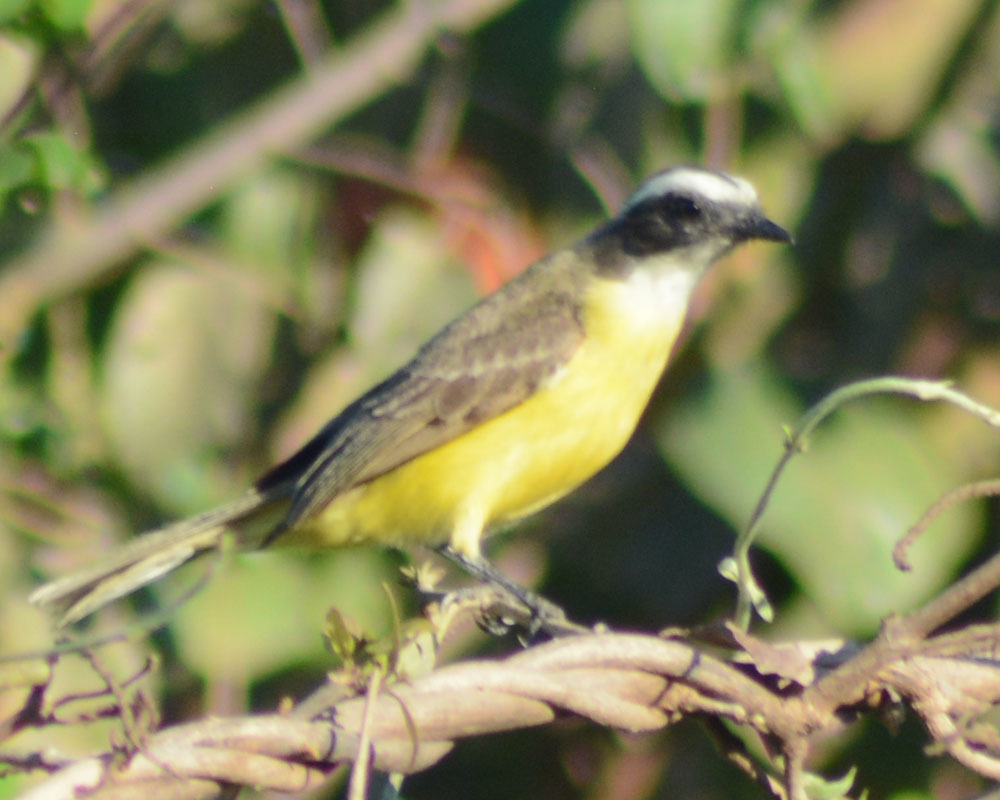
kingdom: Animalia
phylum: Chordata
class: Aves
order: Passeriformes
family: Tyrannidae
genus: Myiozetetes
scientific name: Myiozetetes similis
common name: Social flycatcher
